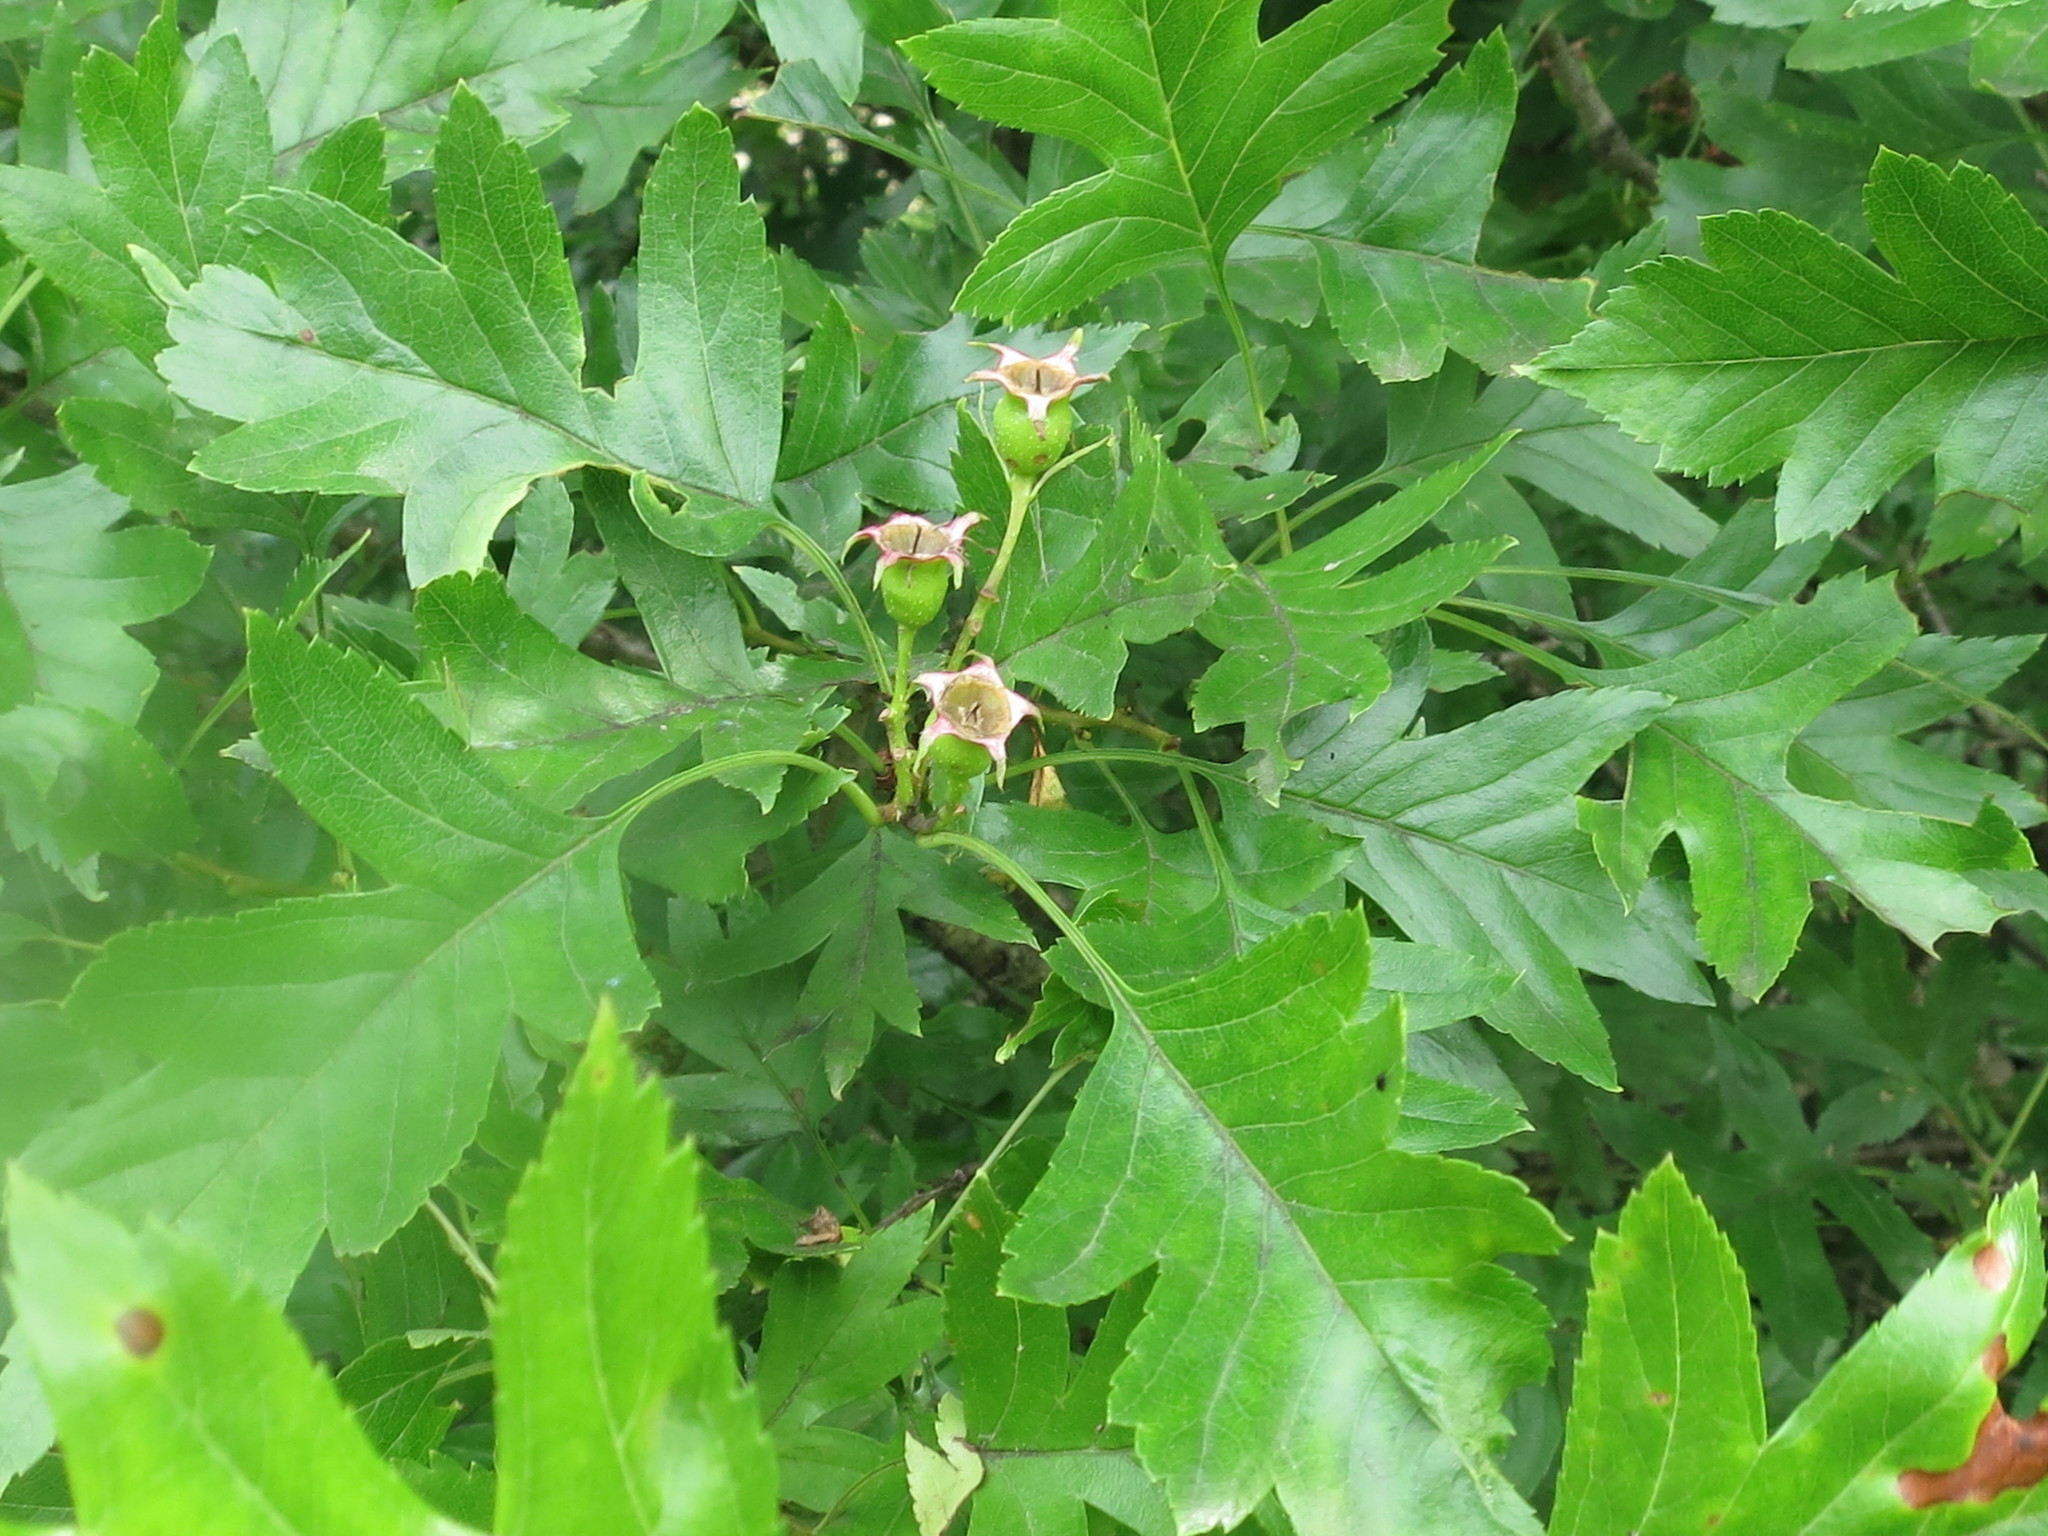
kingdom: Plantae
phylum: Tracheophyta
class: Magnoliopsida
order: Rosales
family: Rosaceae
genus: Crataegus
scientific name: Crataegus pinnatifida
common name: Chinese haw
